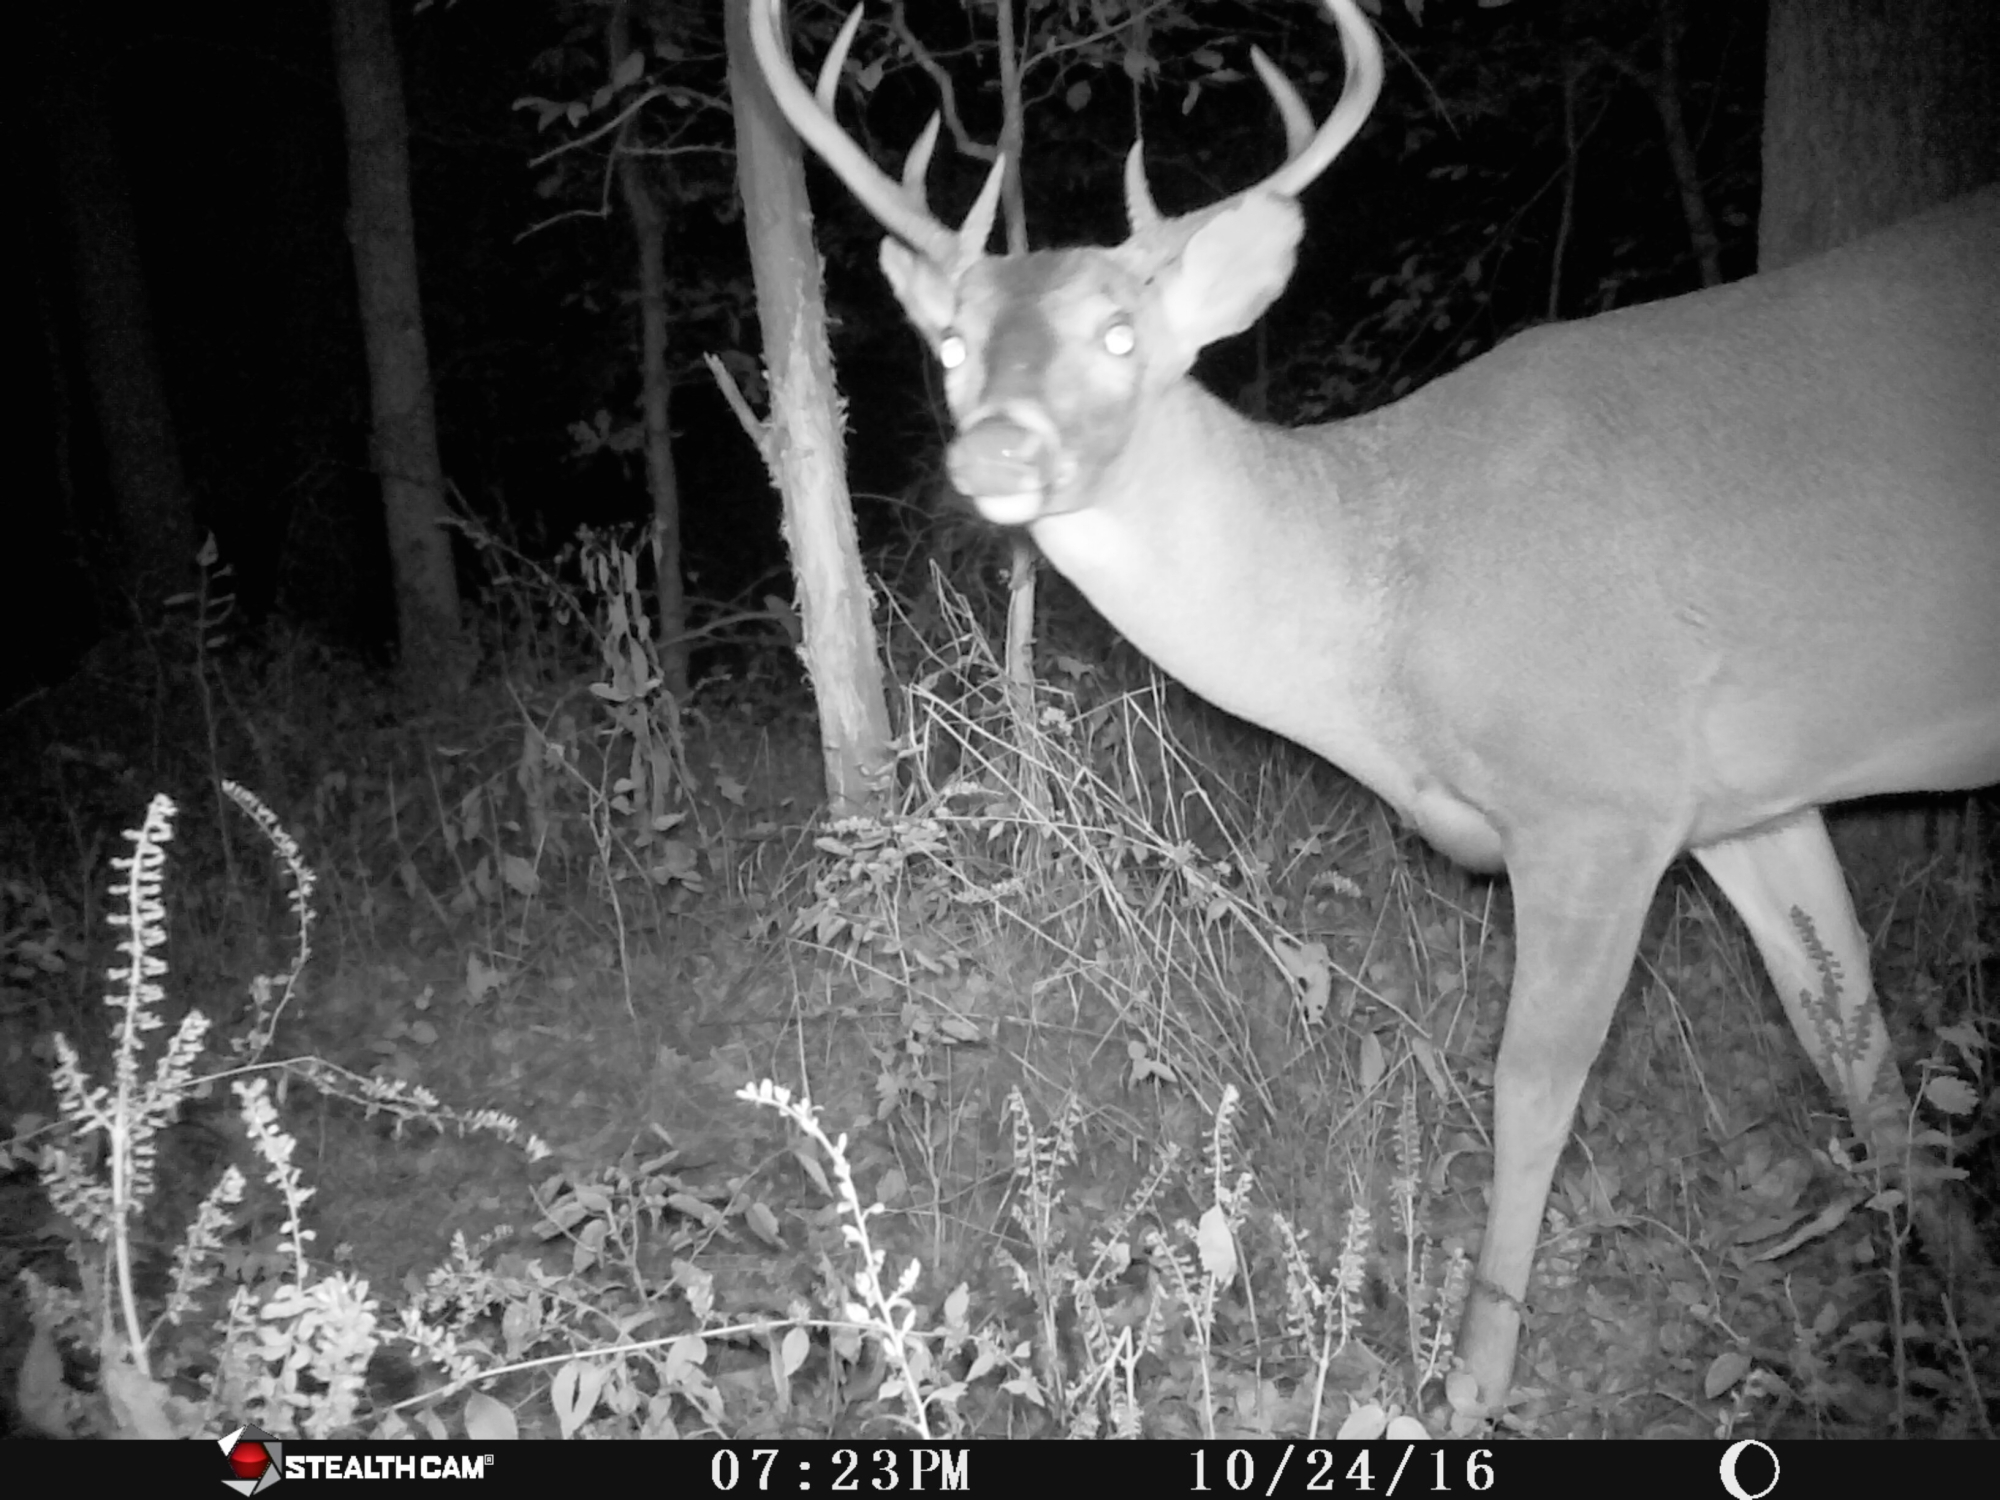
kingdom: Animalia
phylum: Chordata
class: Mammalia
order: Artiodactyla
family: Cervidae
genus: Odocoileus
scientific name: Odocoileus virginianus
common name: White-tailed deer
